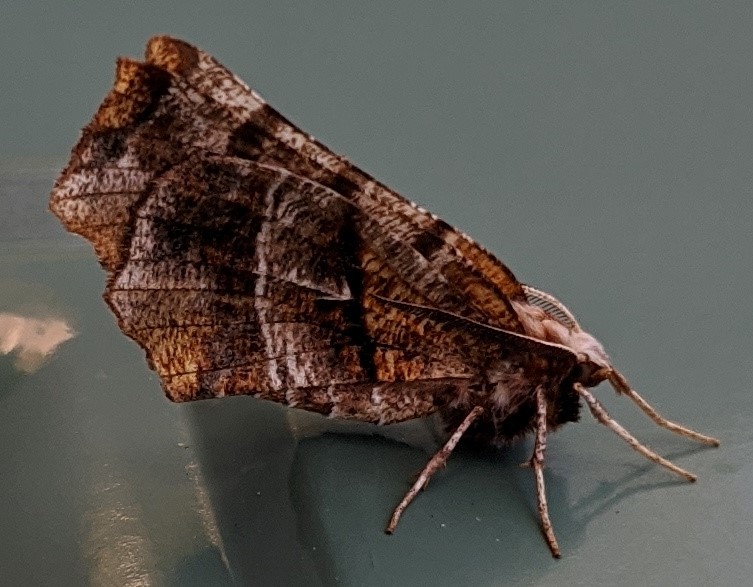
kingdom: Animalia
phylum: Arthropoda
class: Insecta
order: Lepidoptera
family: Geometridae
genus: Selenia
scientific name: Selenia alciphearia
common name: Brown-tipped thorn
